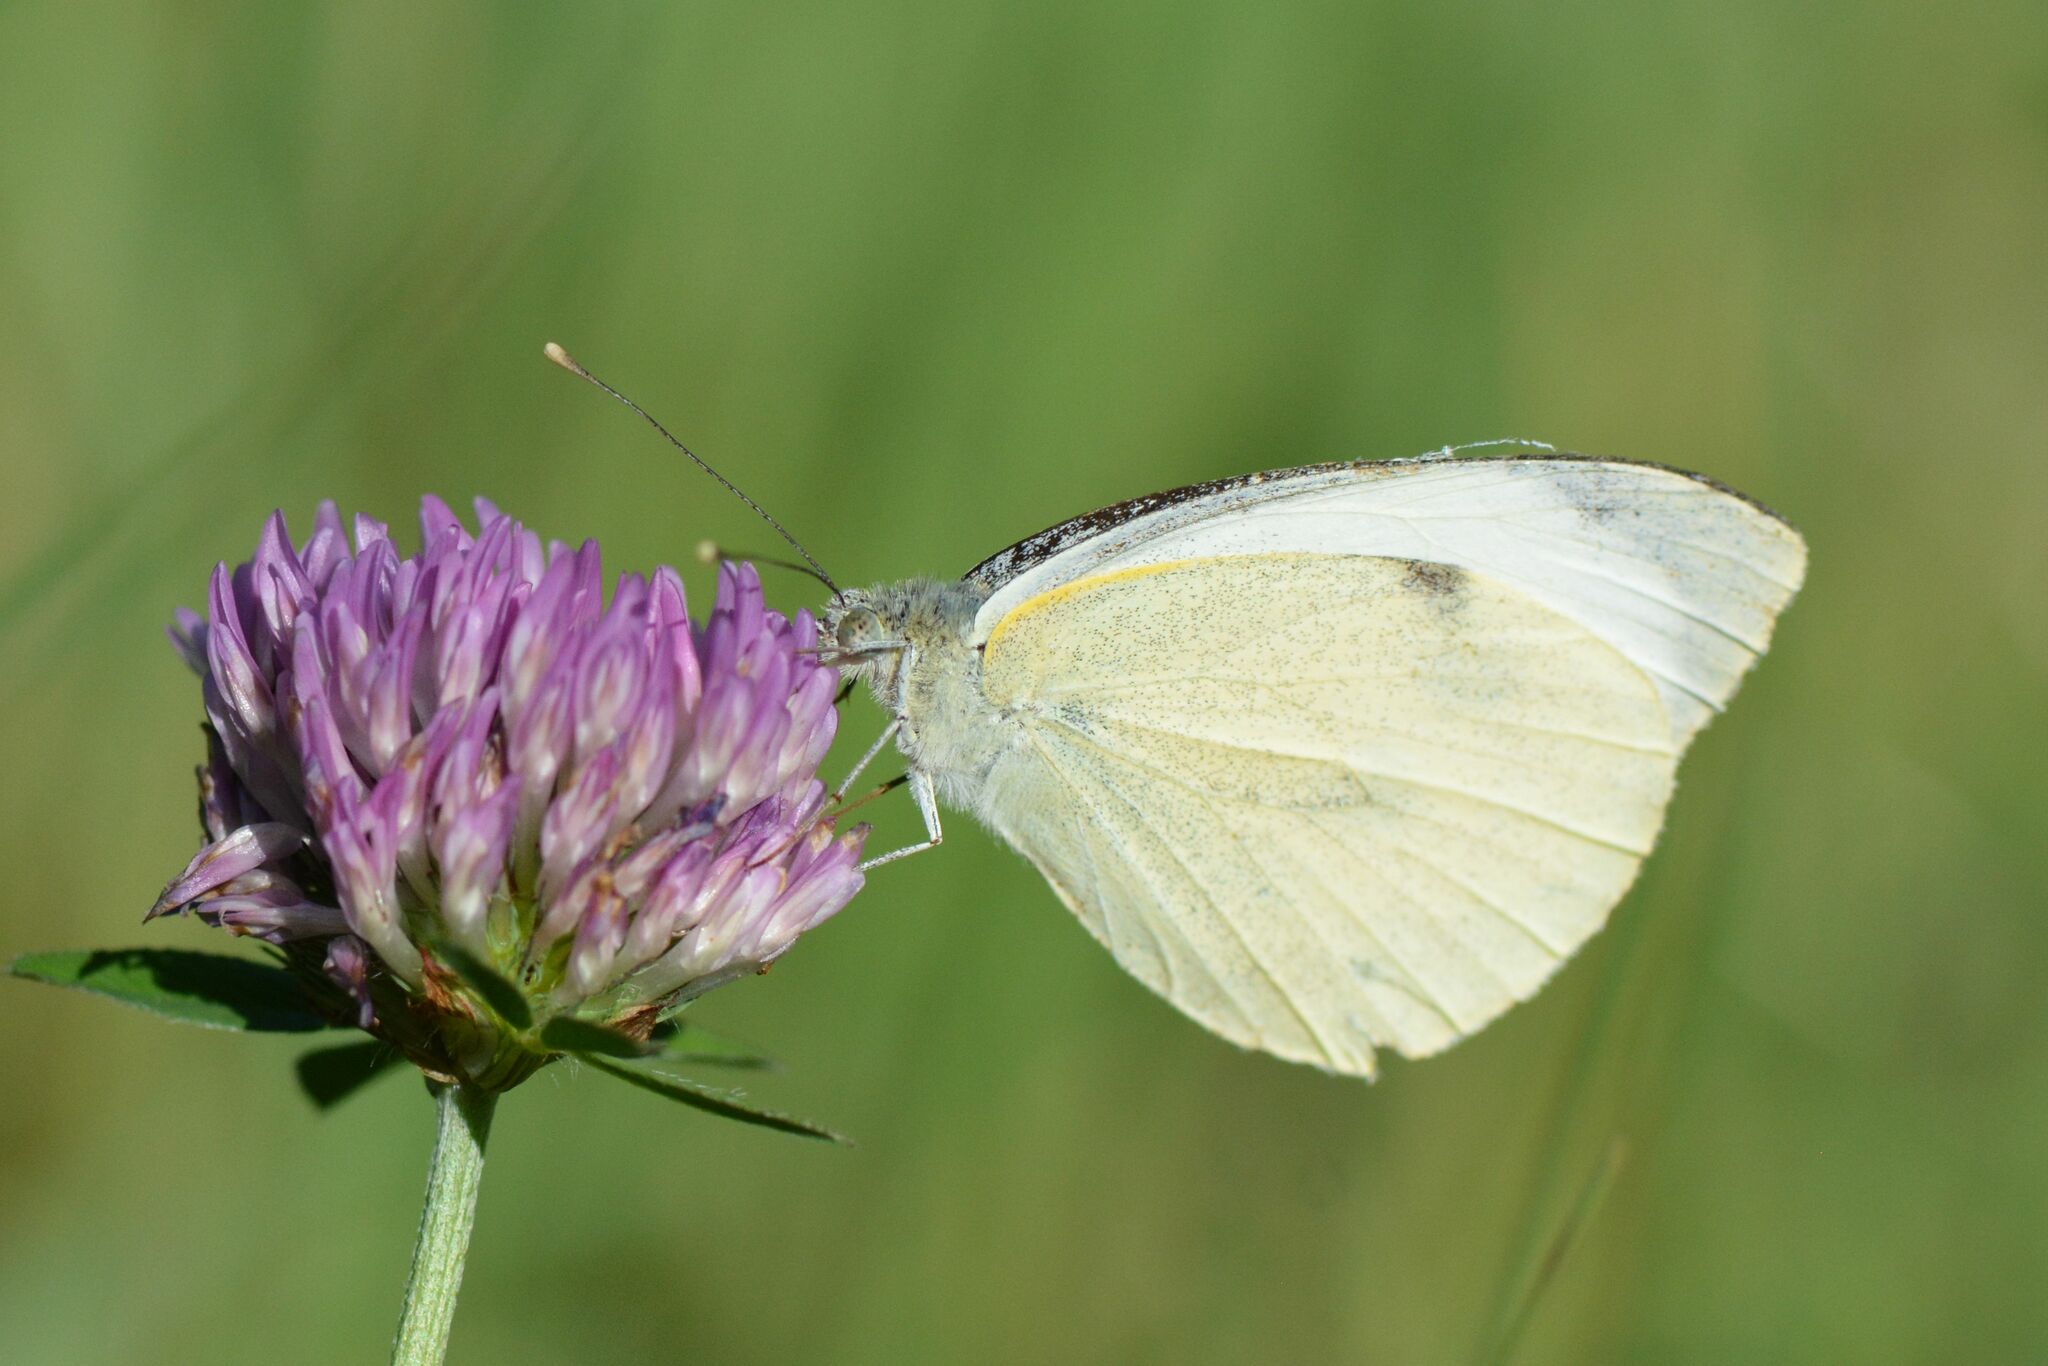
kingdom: Animalia
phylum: Arthropoda
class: Insecta
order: Lepidoptera
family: Pieridae
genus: Pieris
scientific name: Pieris brassicae
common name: Large white
